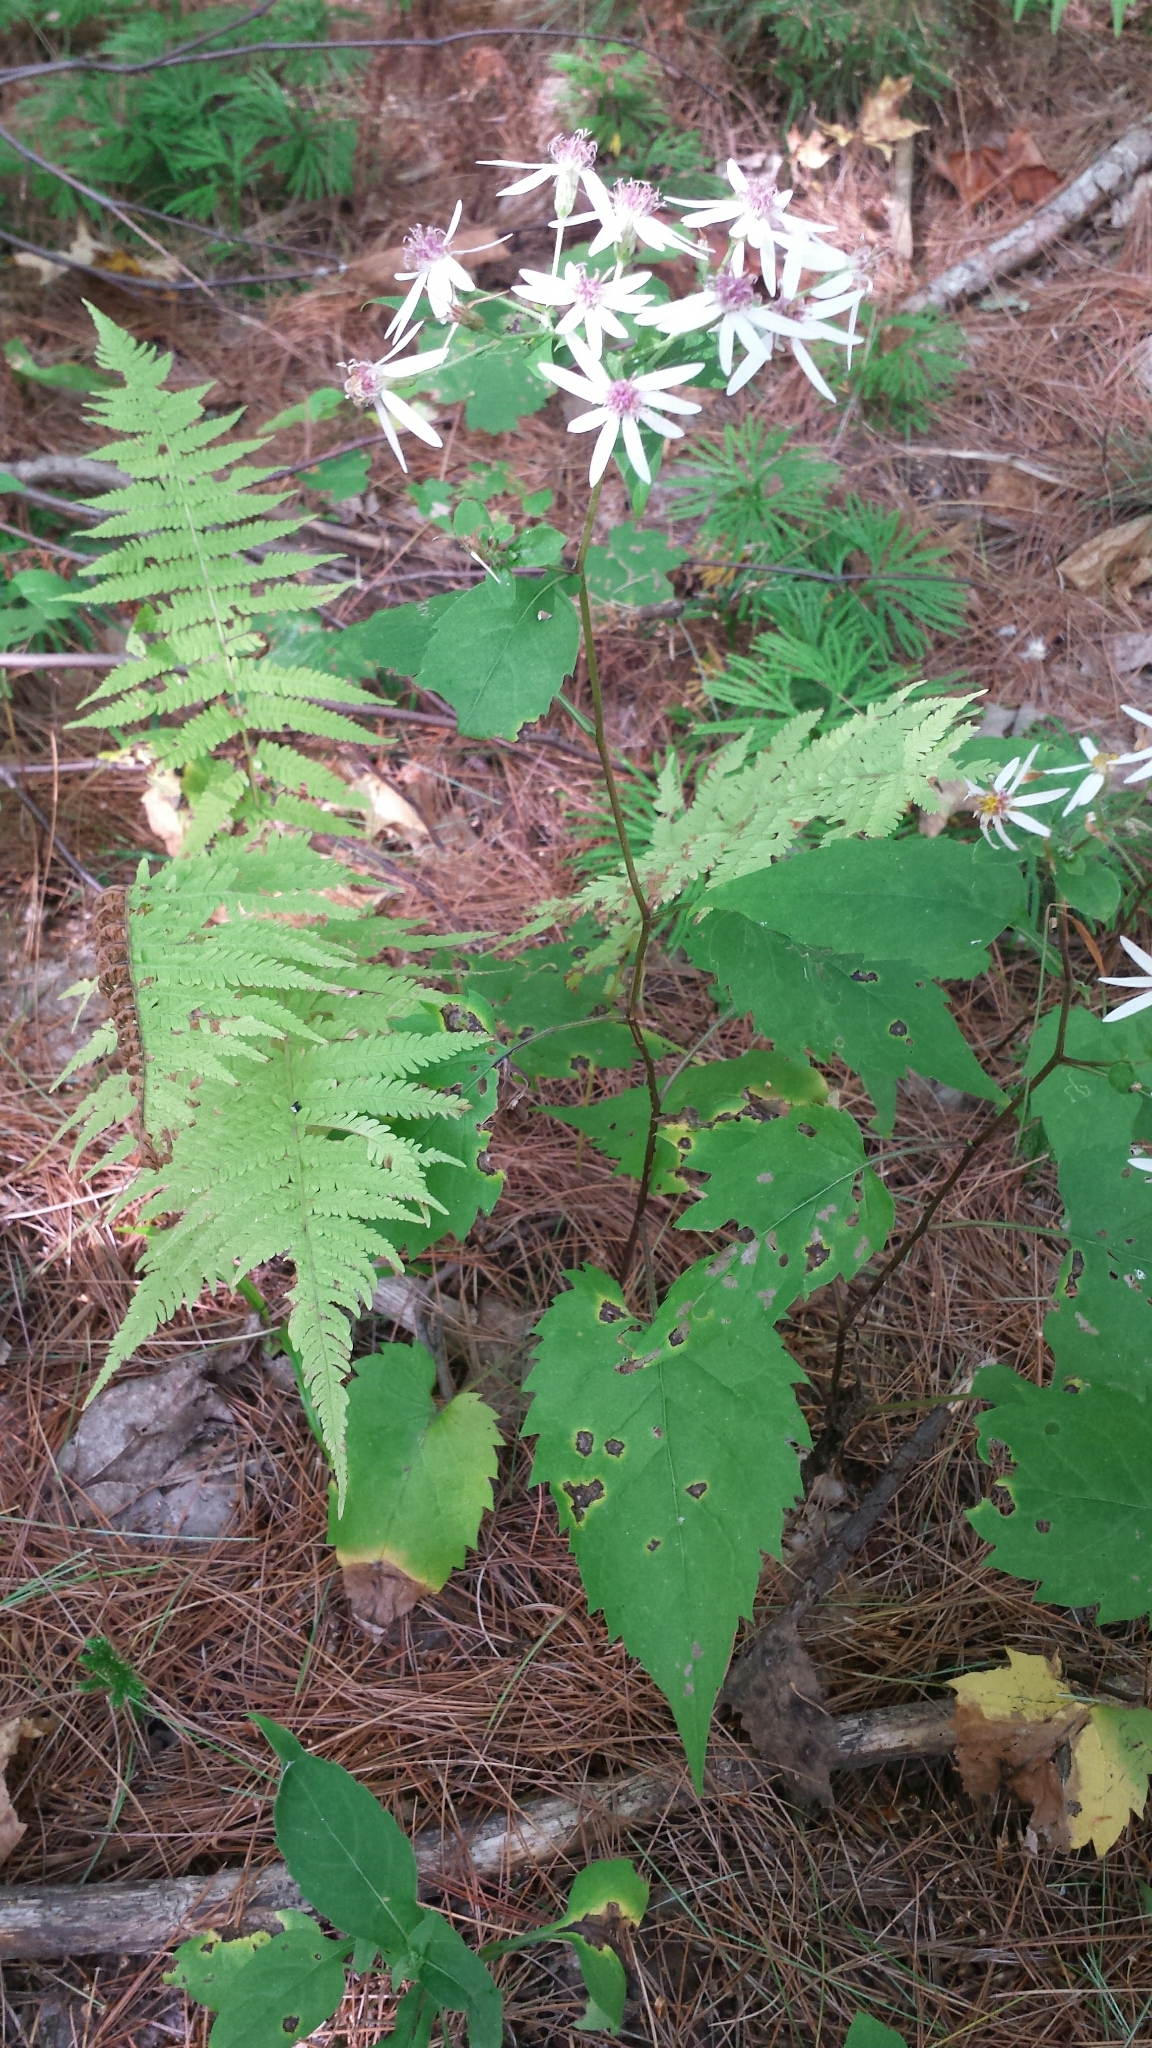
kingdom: Plantae
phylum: Tracheophyta
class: Magnoliopsida
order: Asterales
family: Asteraceae
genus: Eurybia
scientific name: Eurybia divaricata
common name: White wood aster
